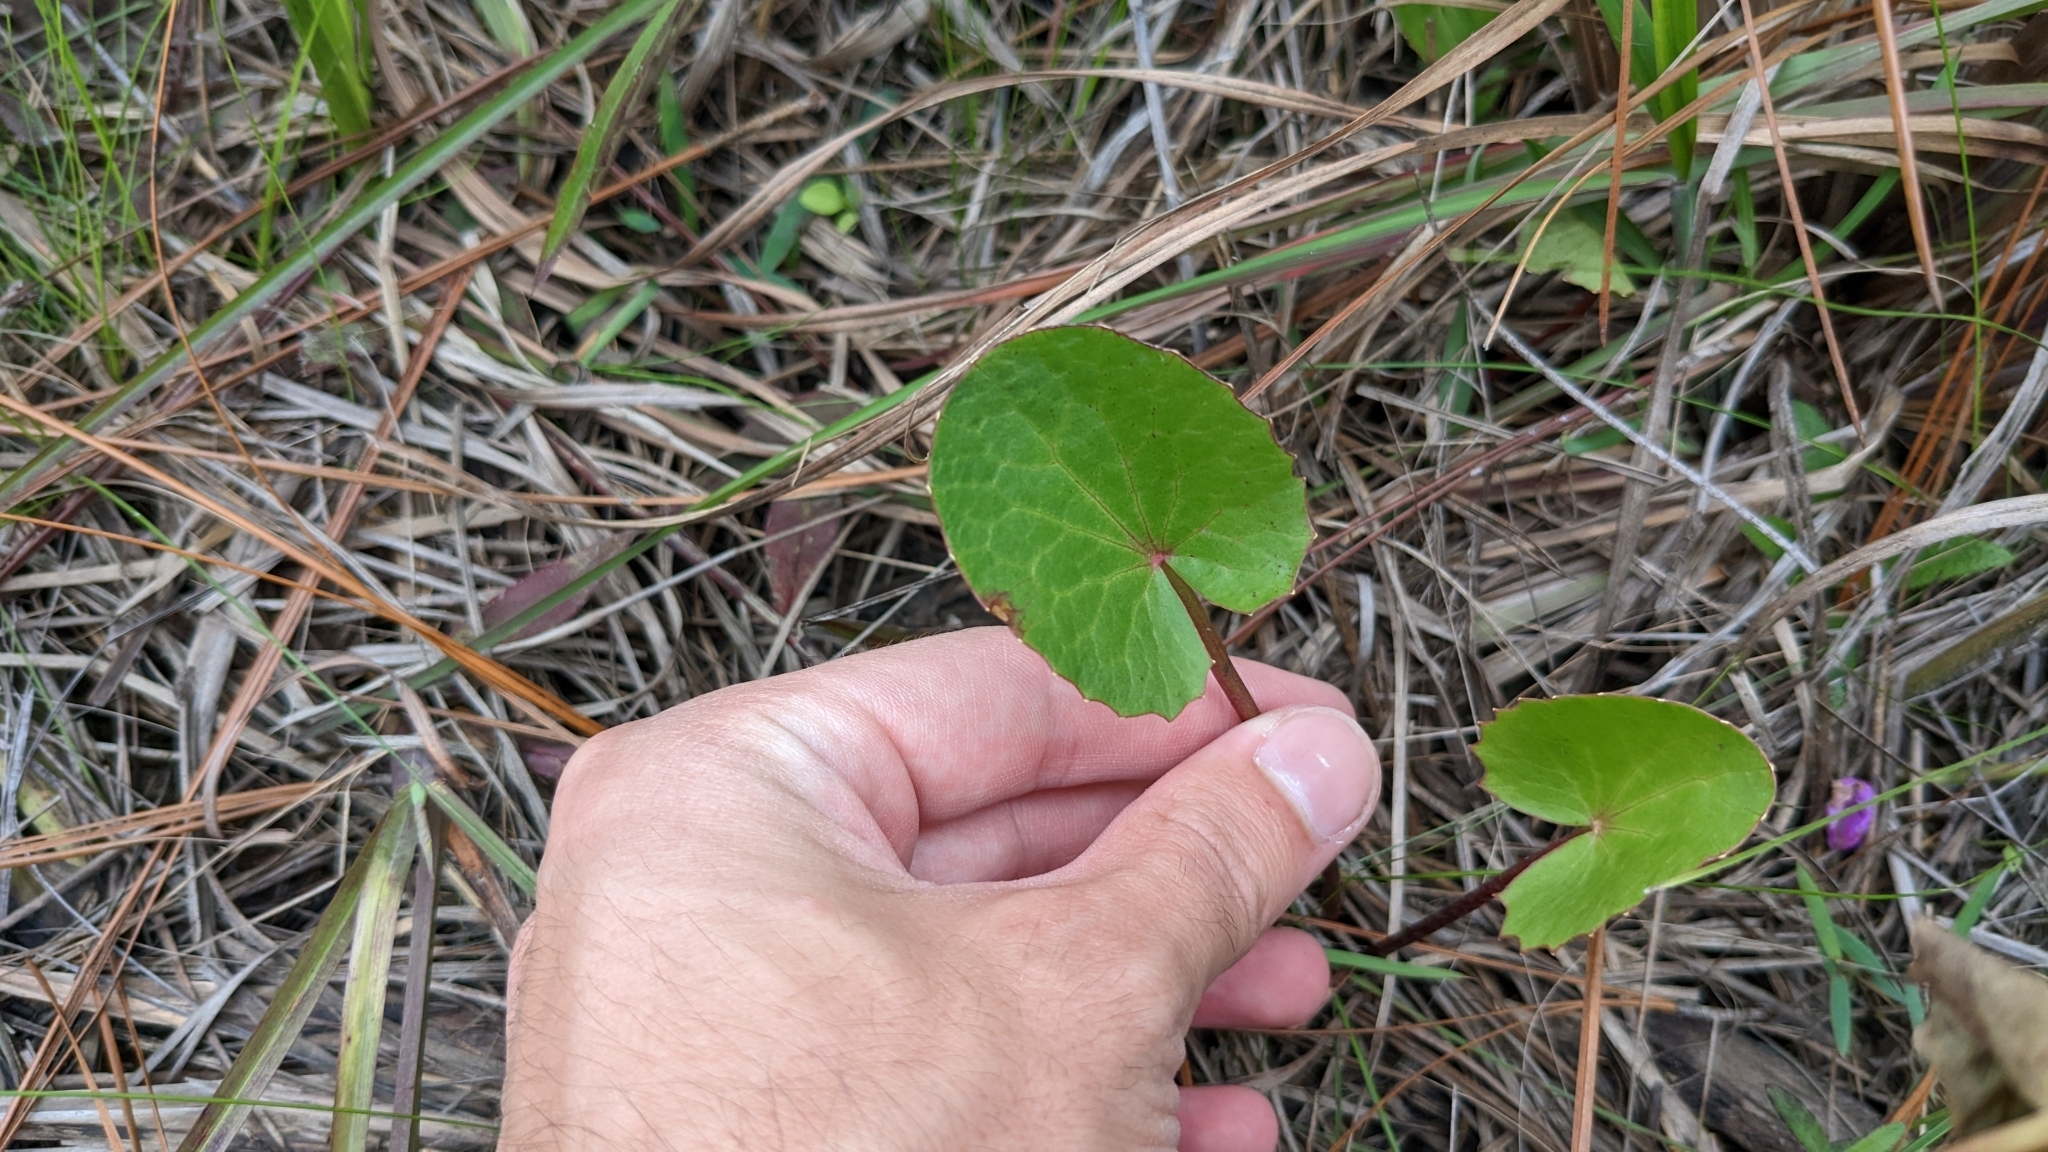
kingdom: Plantae
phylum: Tracheophyta
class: Magnoliopsida
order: Apiales
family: Apiaceae
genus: Centella
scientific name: Centella erecta
